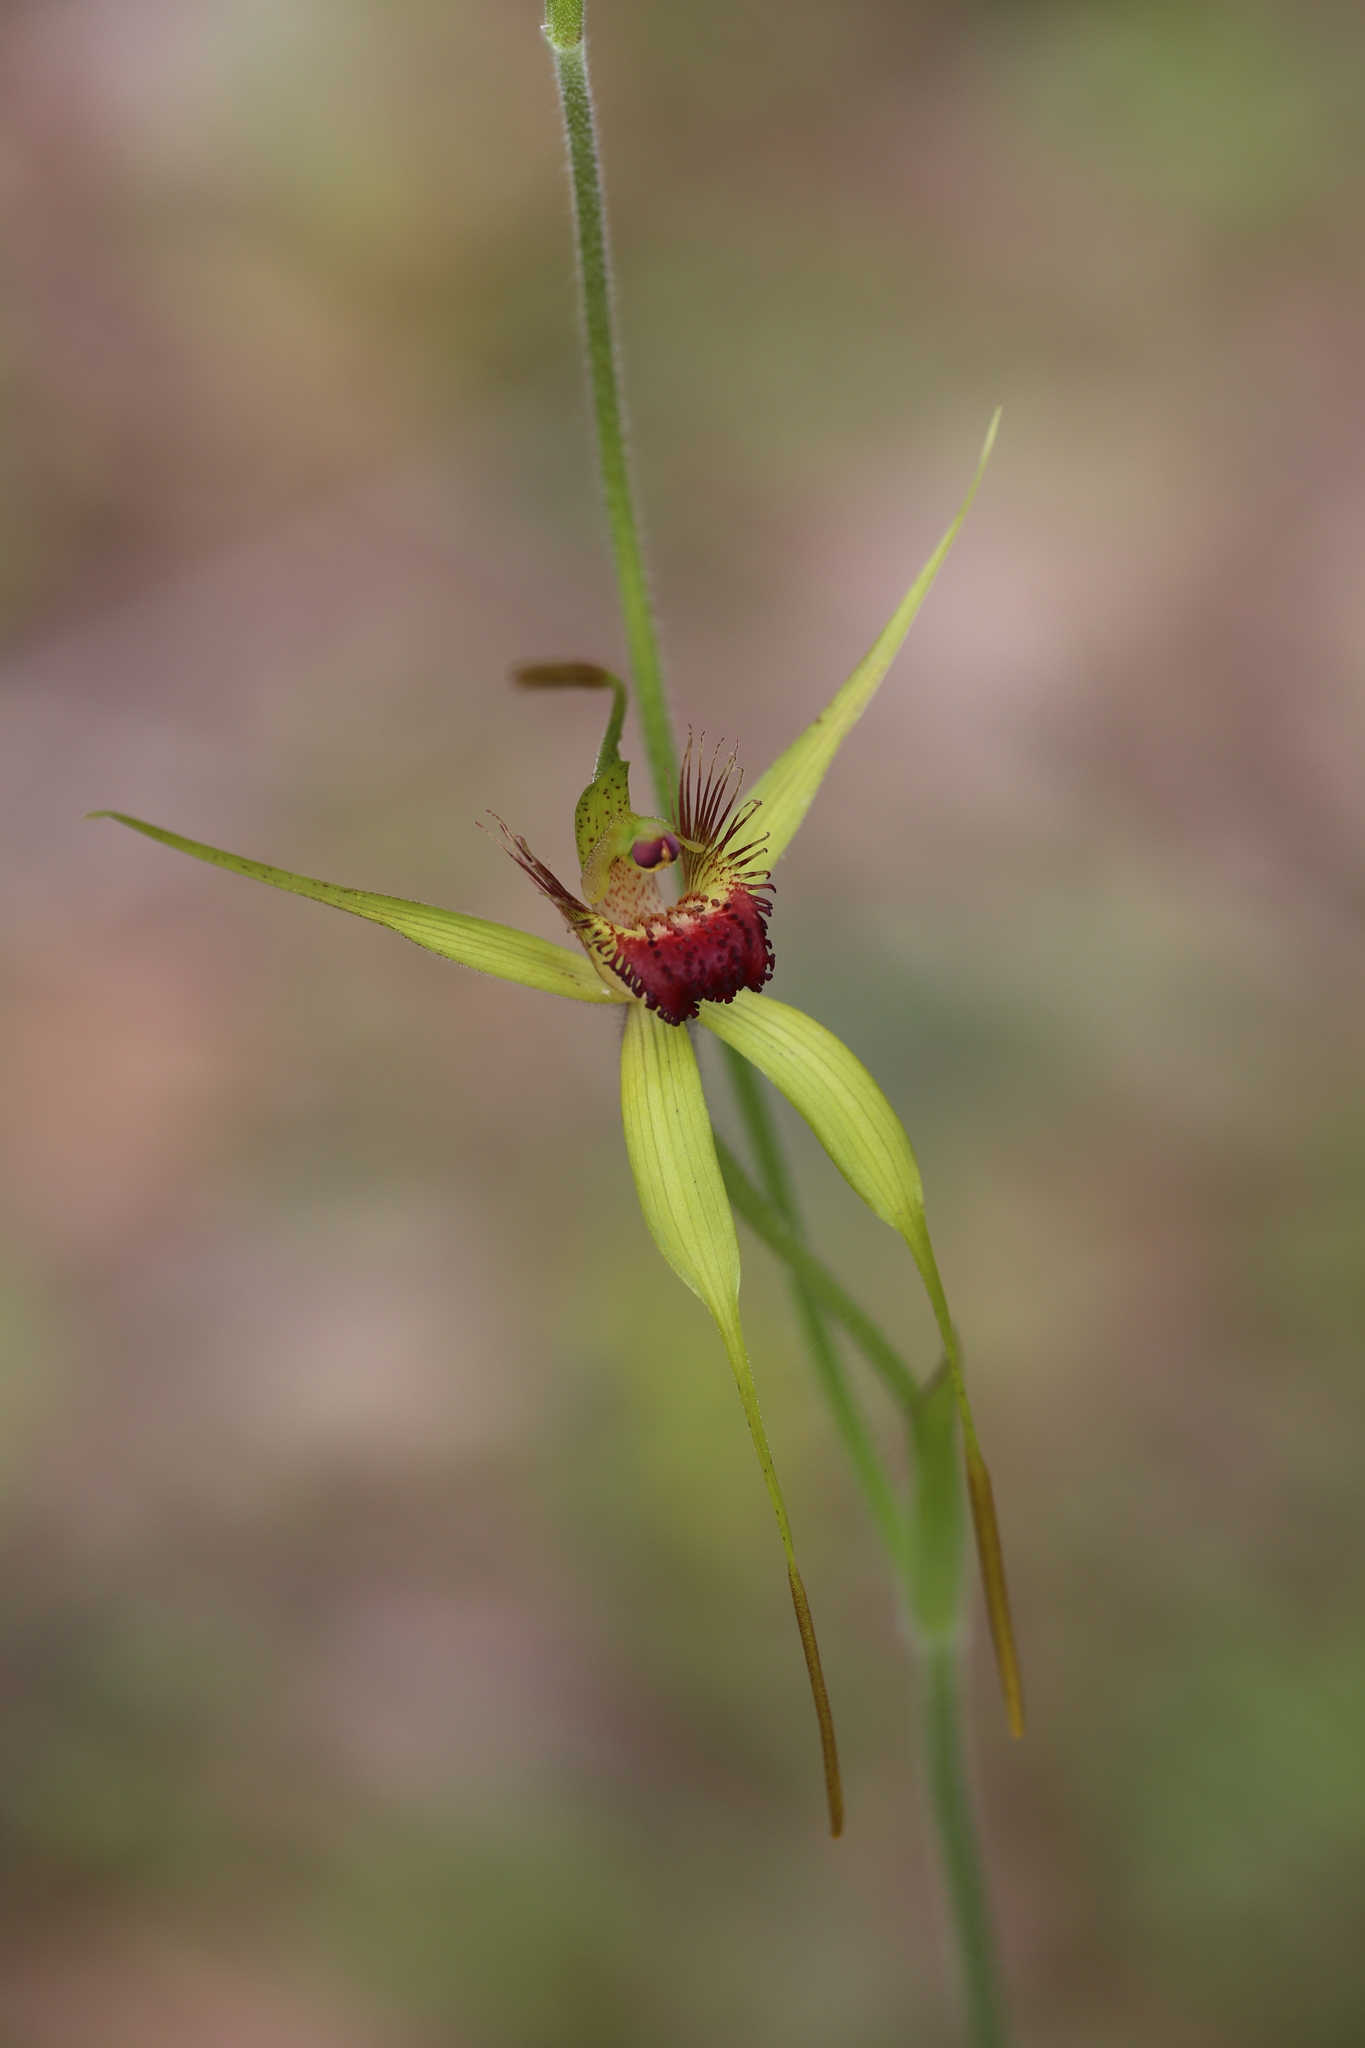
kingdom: Plantae
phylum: Tracheophyta
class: Liliopsida
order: Asparagales
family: Orchidaceae
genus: Caladenia
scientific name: Caladenia procera
